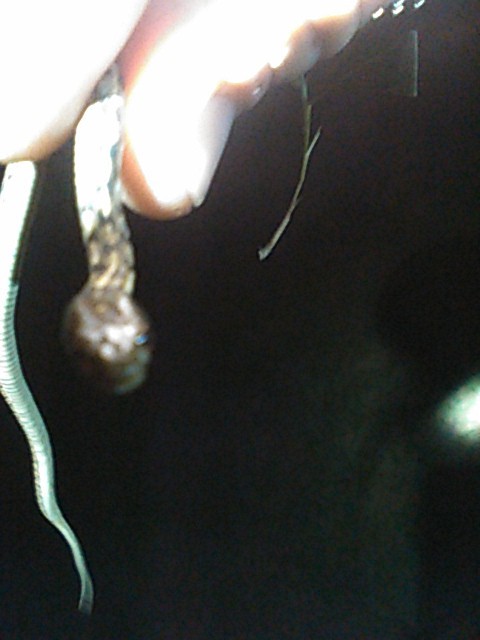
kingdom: Animalia
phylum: Chordata
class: Squamata
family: Colubridae
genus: Thamnophis
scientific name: Thamnophis marcianus
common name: Checkered garter snake
